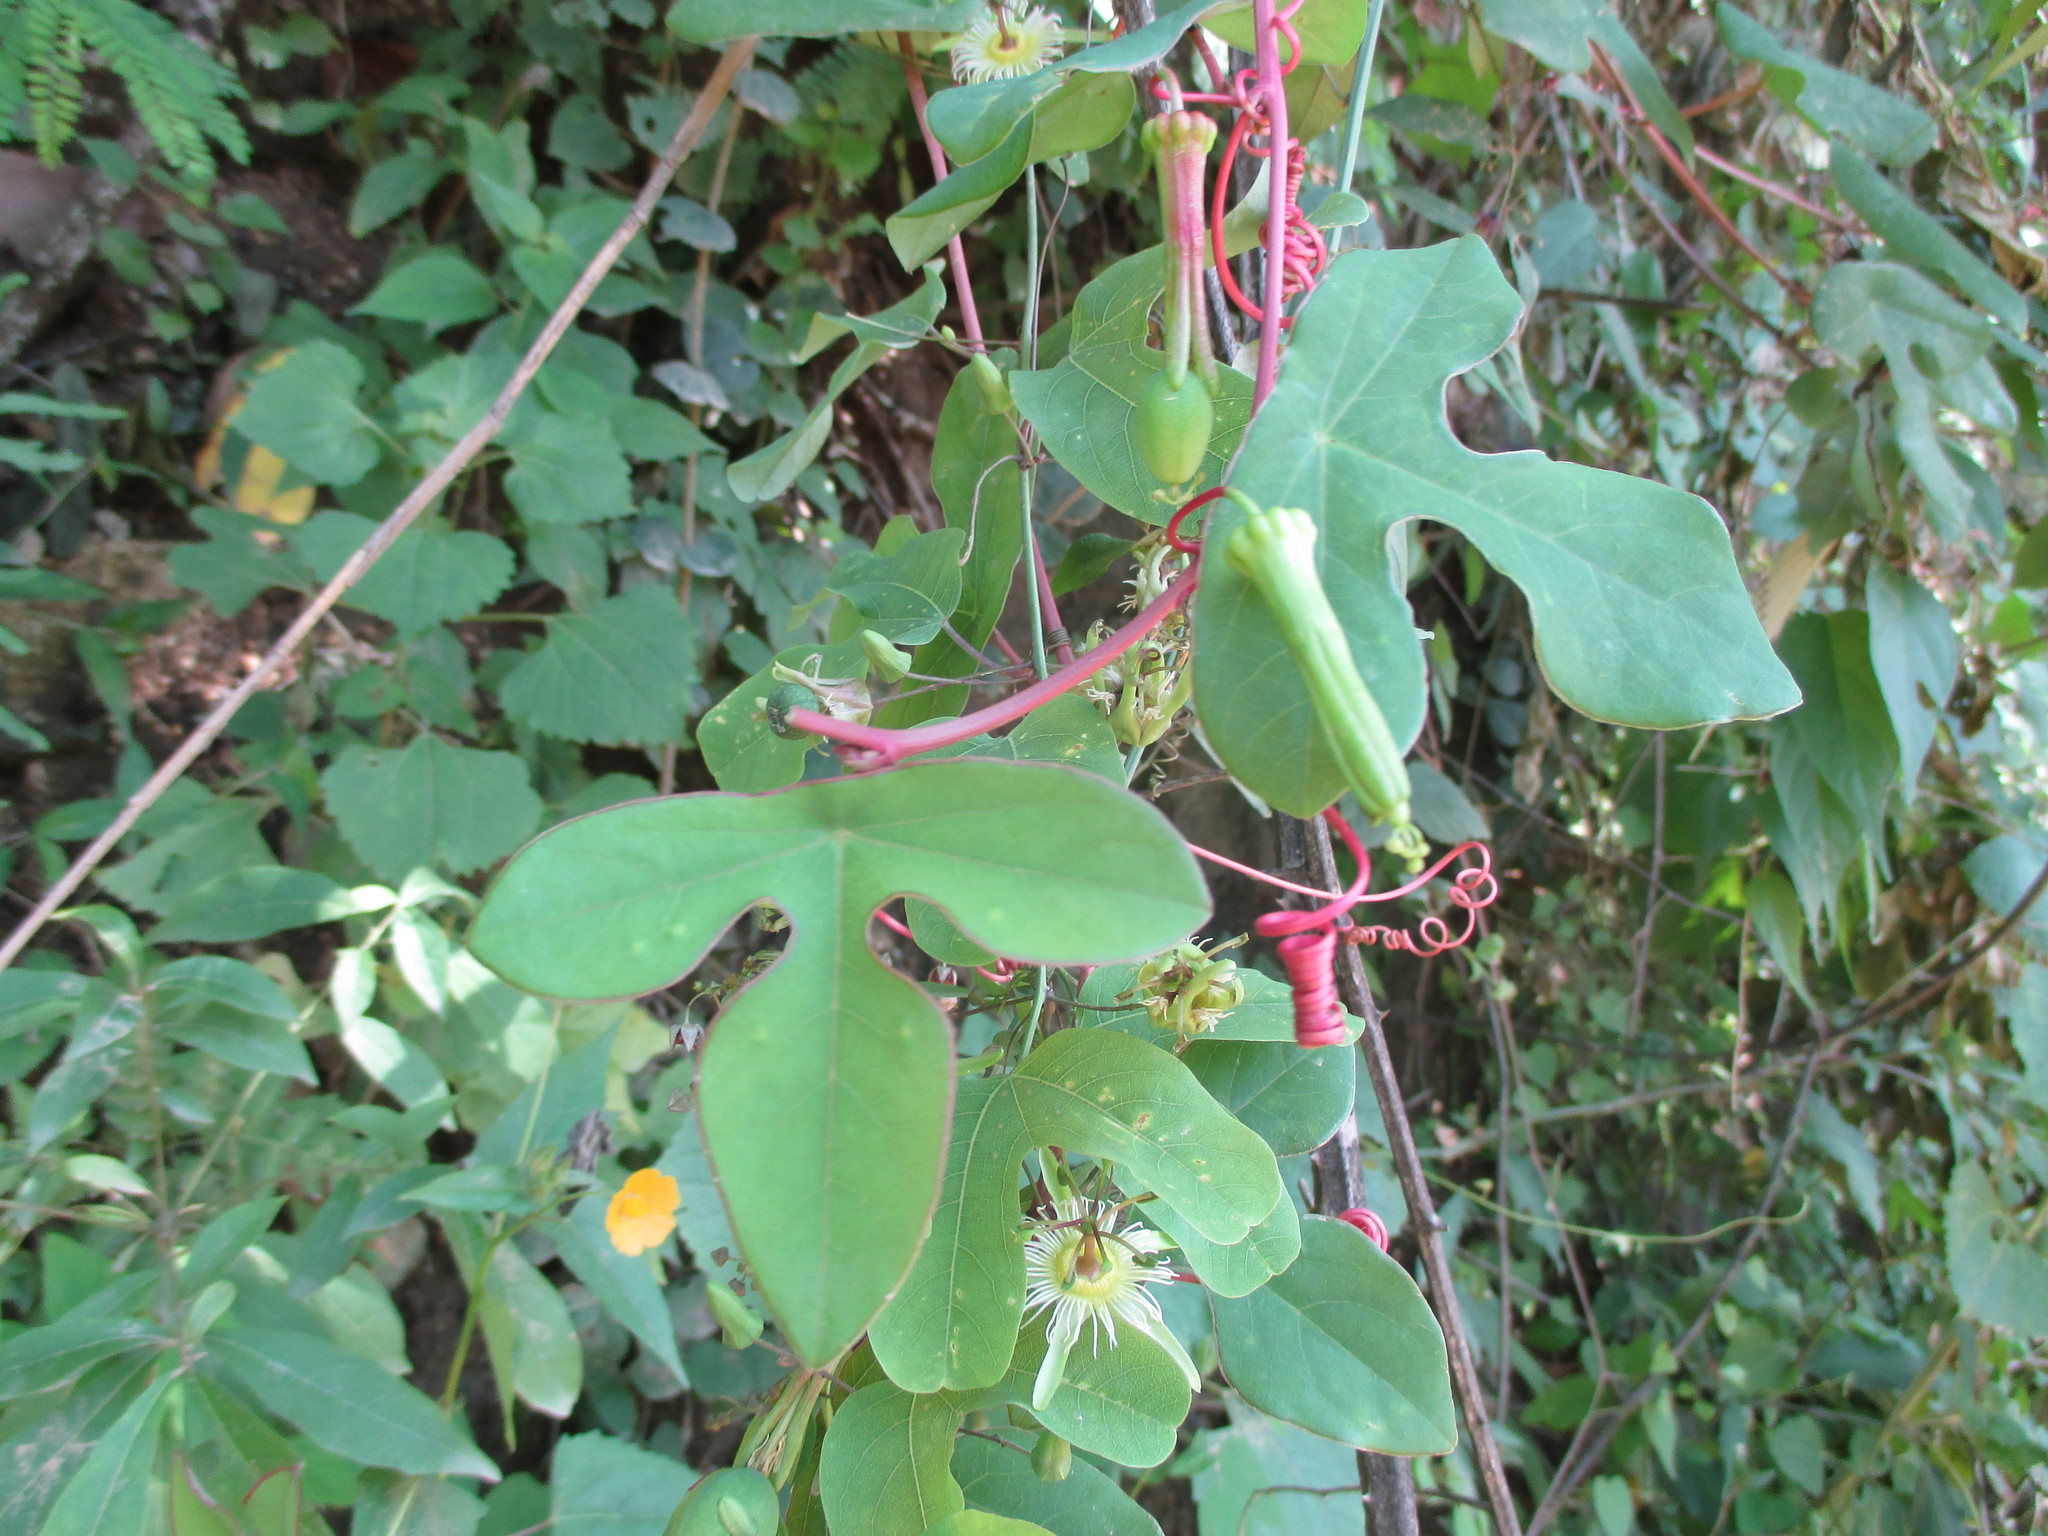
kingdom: Plantae
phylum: Tracheophyta
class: Magnoliopsida
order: Malpighiales
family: Passifloraceae
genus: Passiflora
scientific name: Passiflora viridiflora
